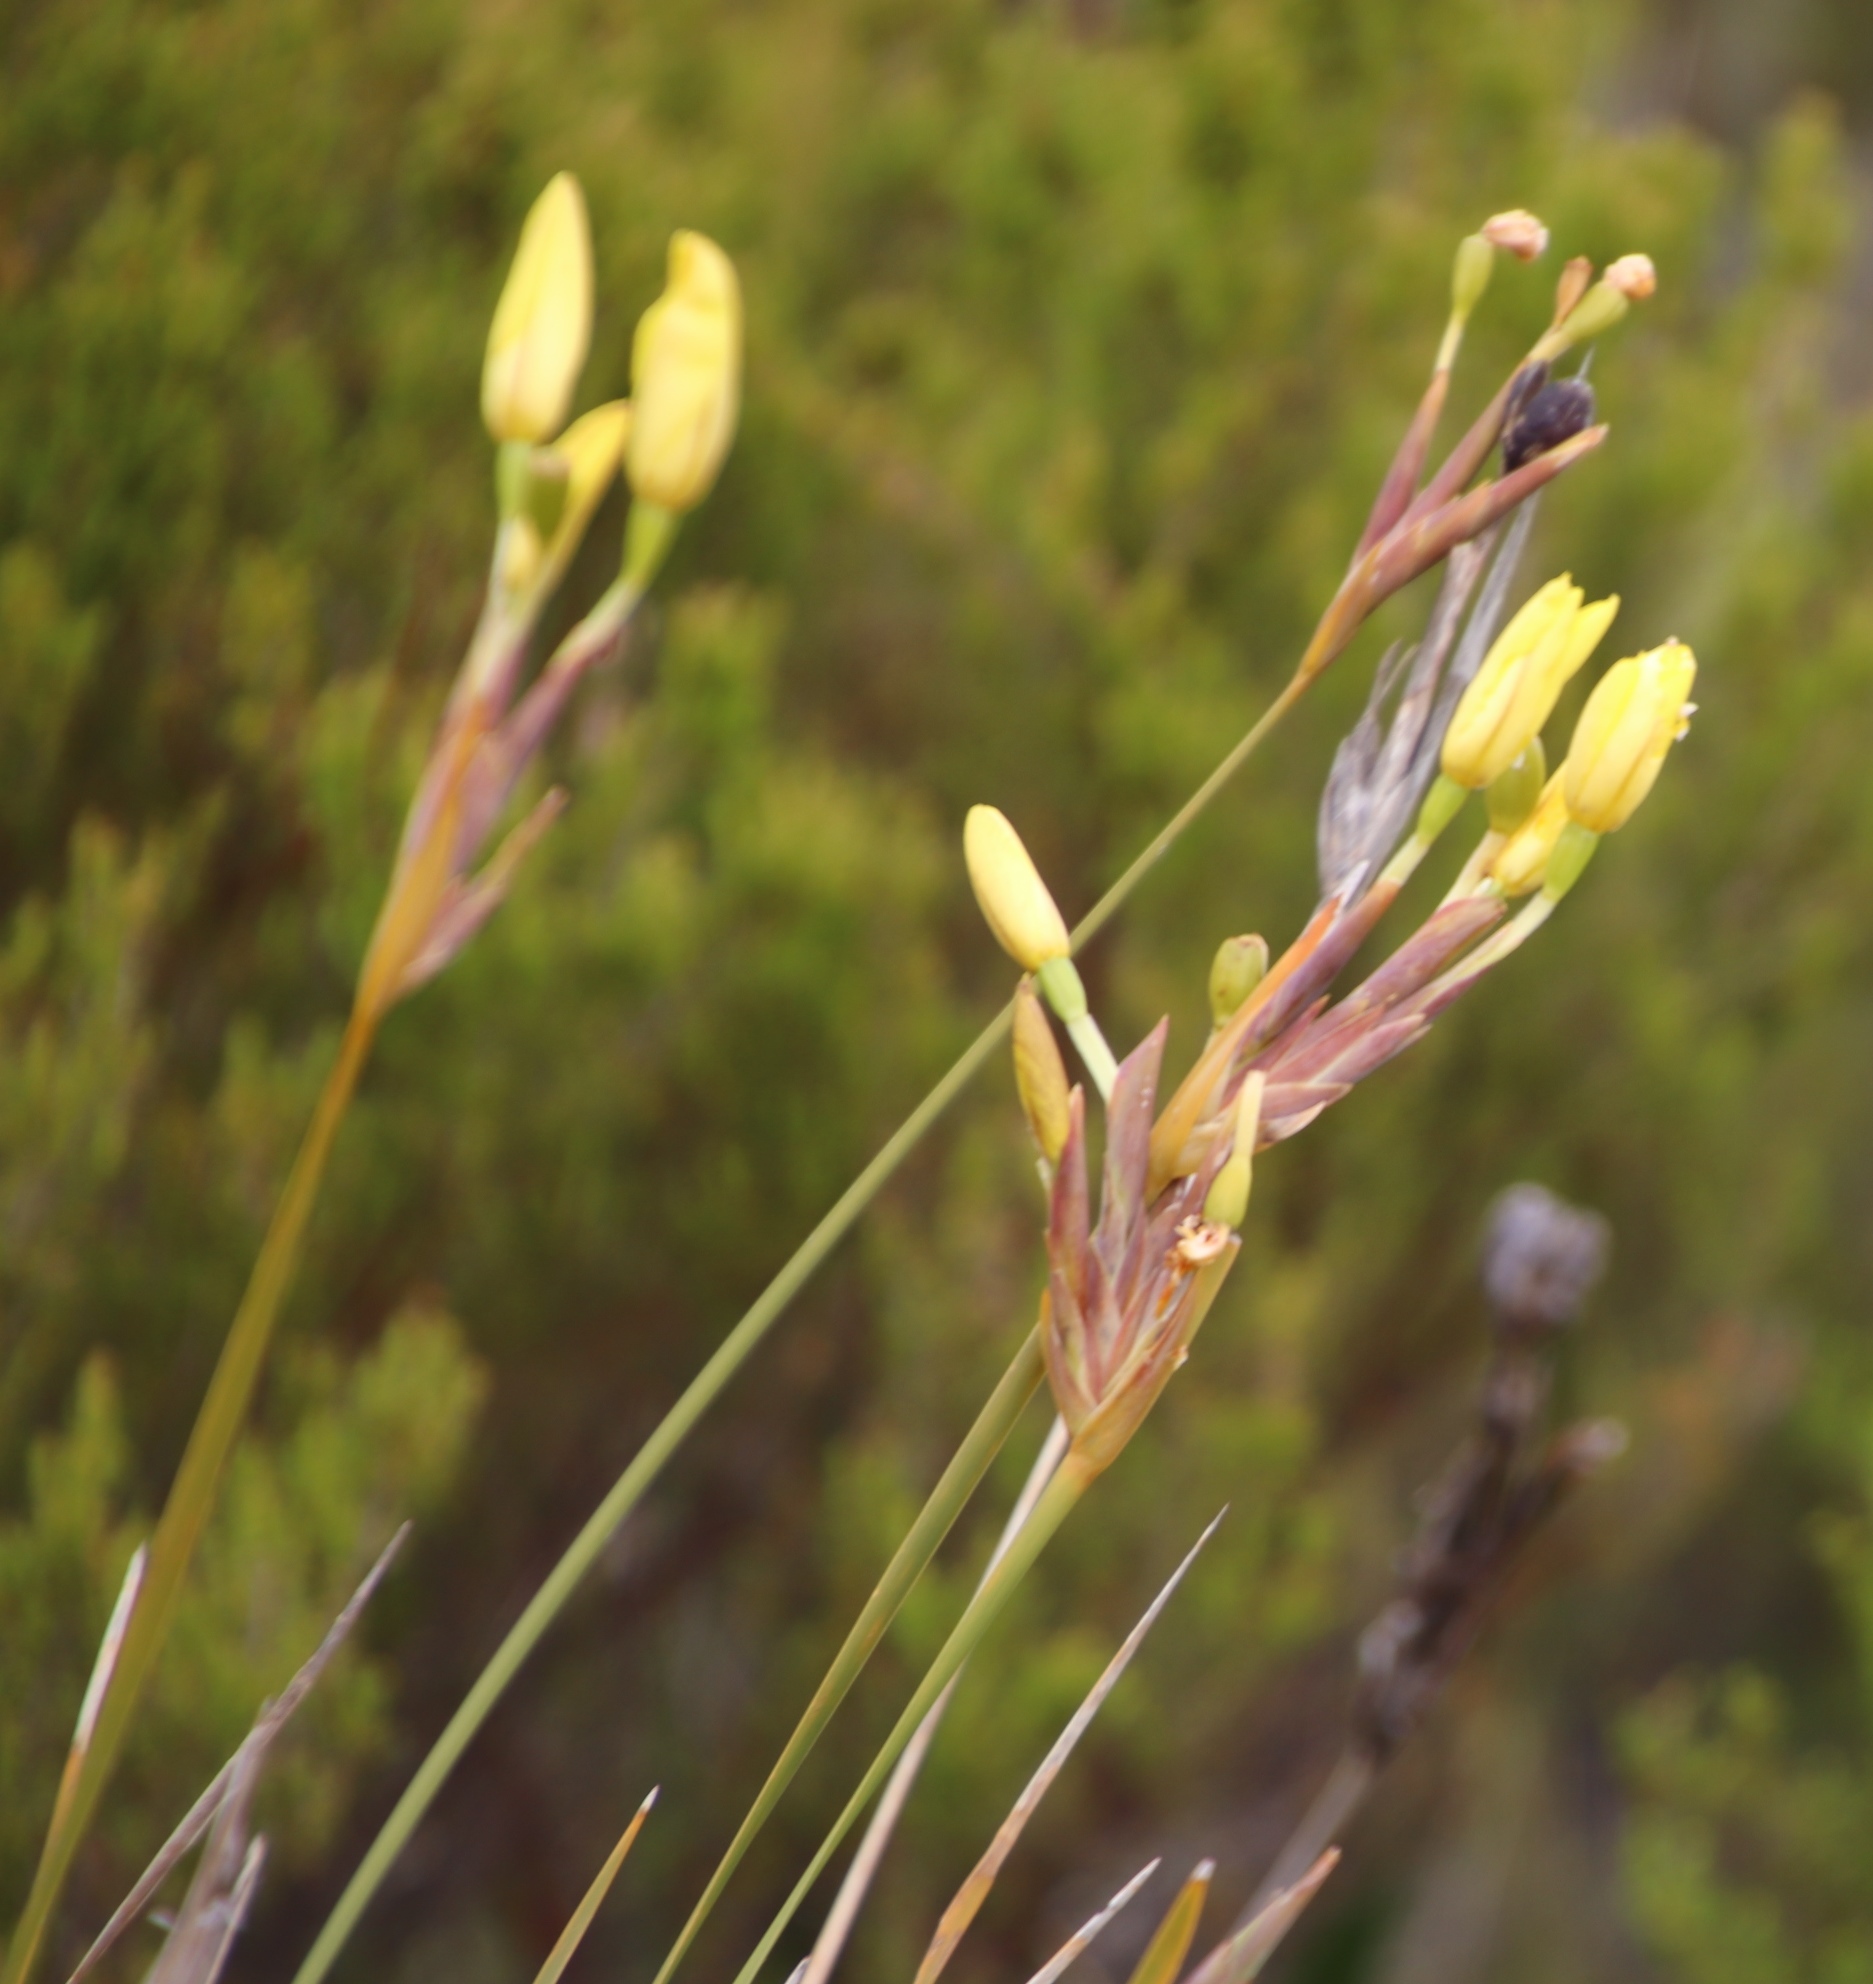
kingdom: Plantae
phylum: Tracheophyta
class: Liliopsida
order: Asparagales
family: Iridaceae
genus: Bobartia
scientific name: Bobartia gladiata
